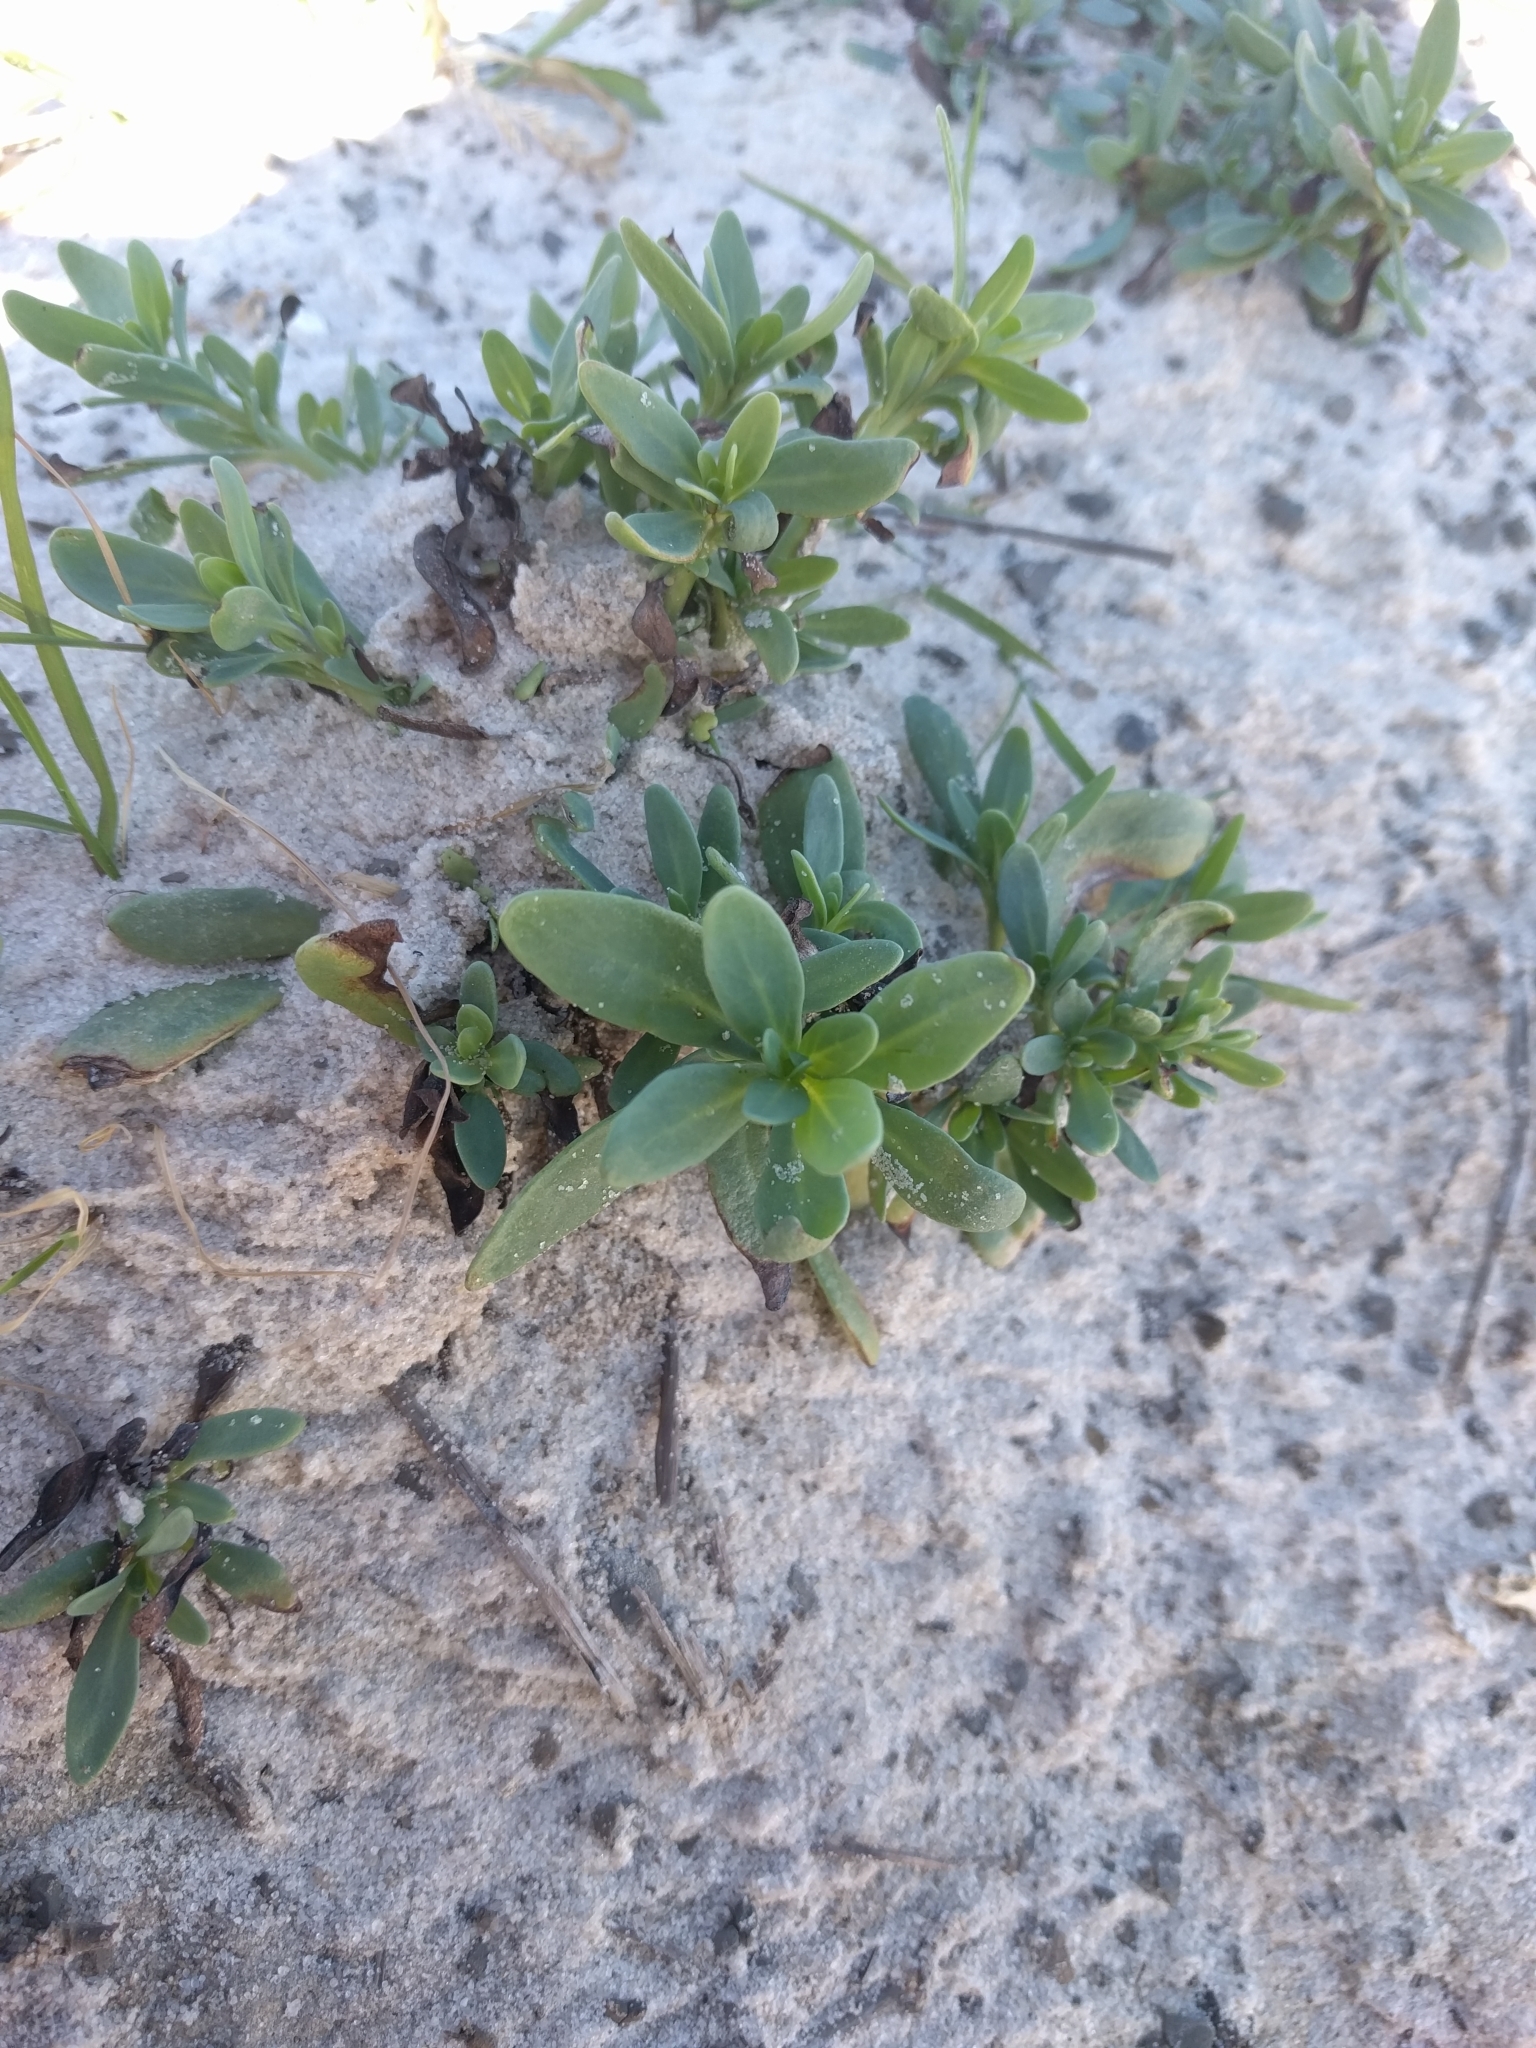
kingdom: Plantae
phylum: Tracheophyta
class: Magnoliopsida
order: Boraginales
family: Heliotropiaceae
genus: Heliotropium
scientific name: Heliotropium curassavicum
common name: Seaside heliotrope
